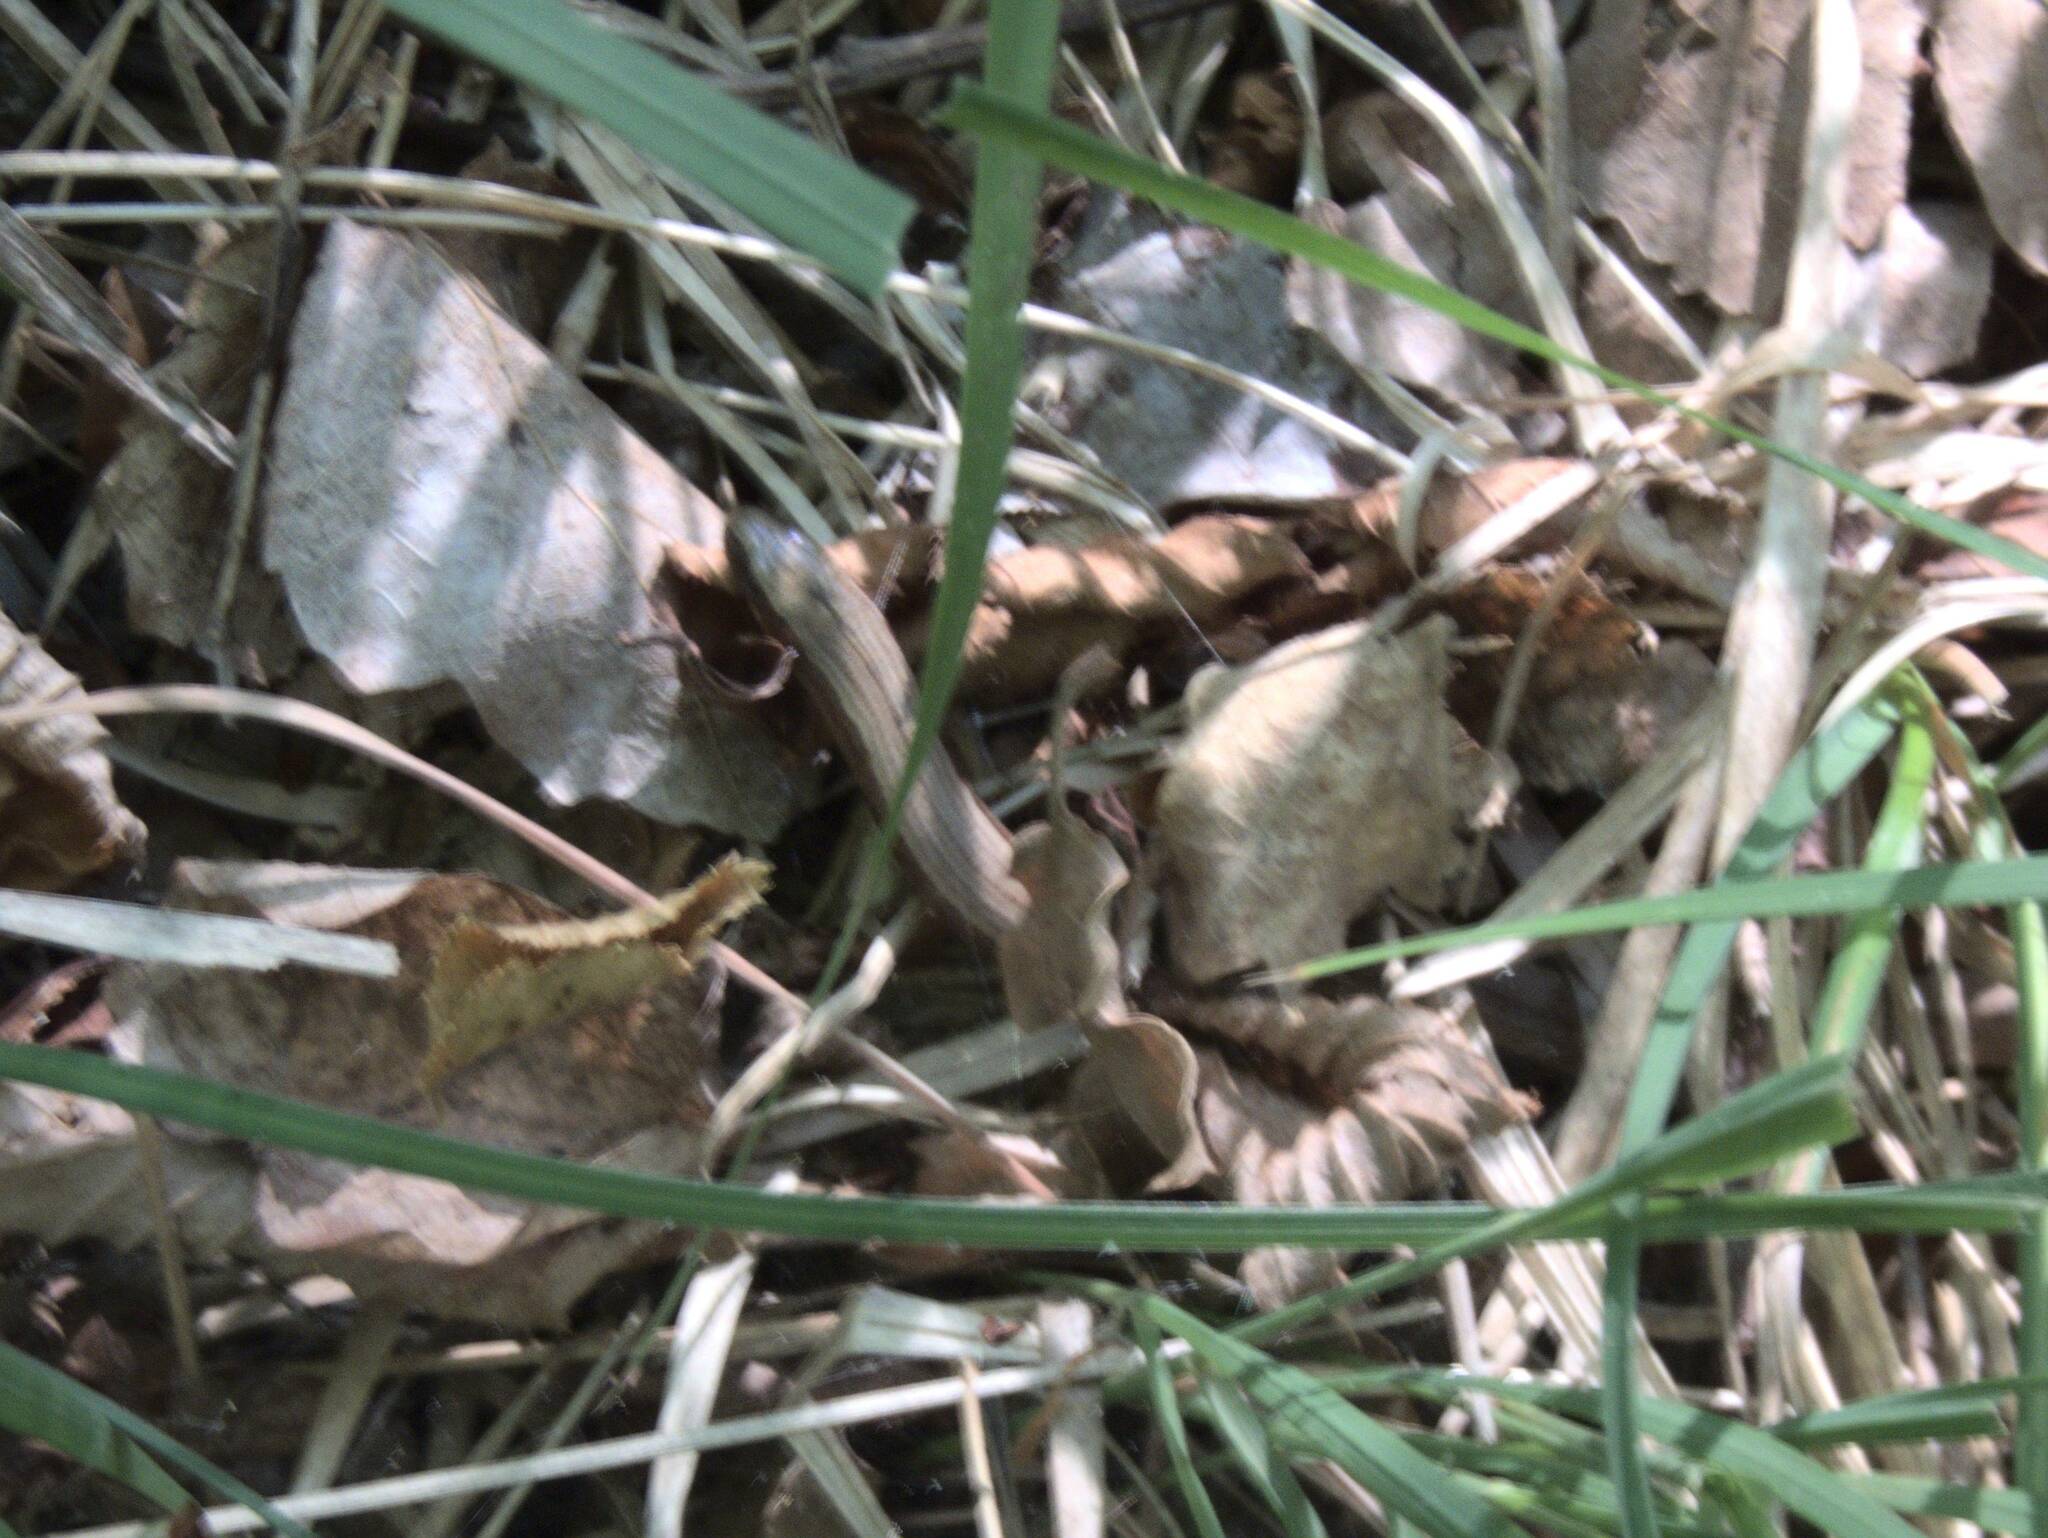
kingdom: Animalia
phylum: Chordata
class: Squamata
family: Anguidae
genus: Anguis
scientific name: Anguis veronensis
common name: Italian slow worm
